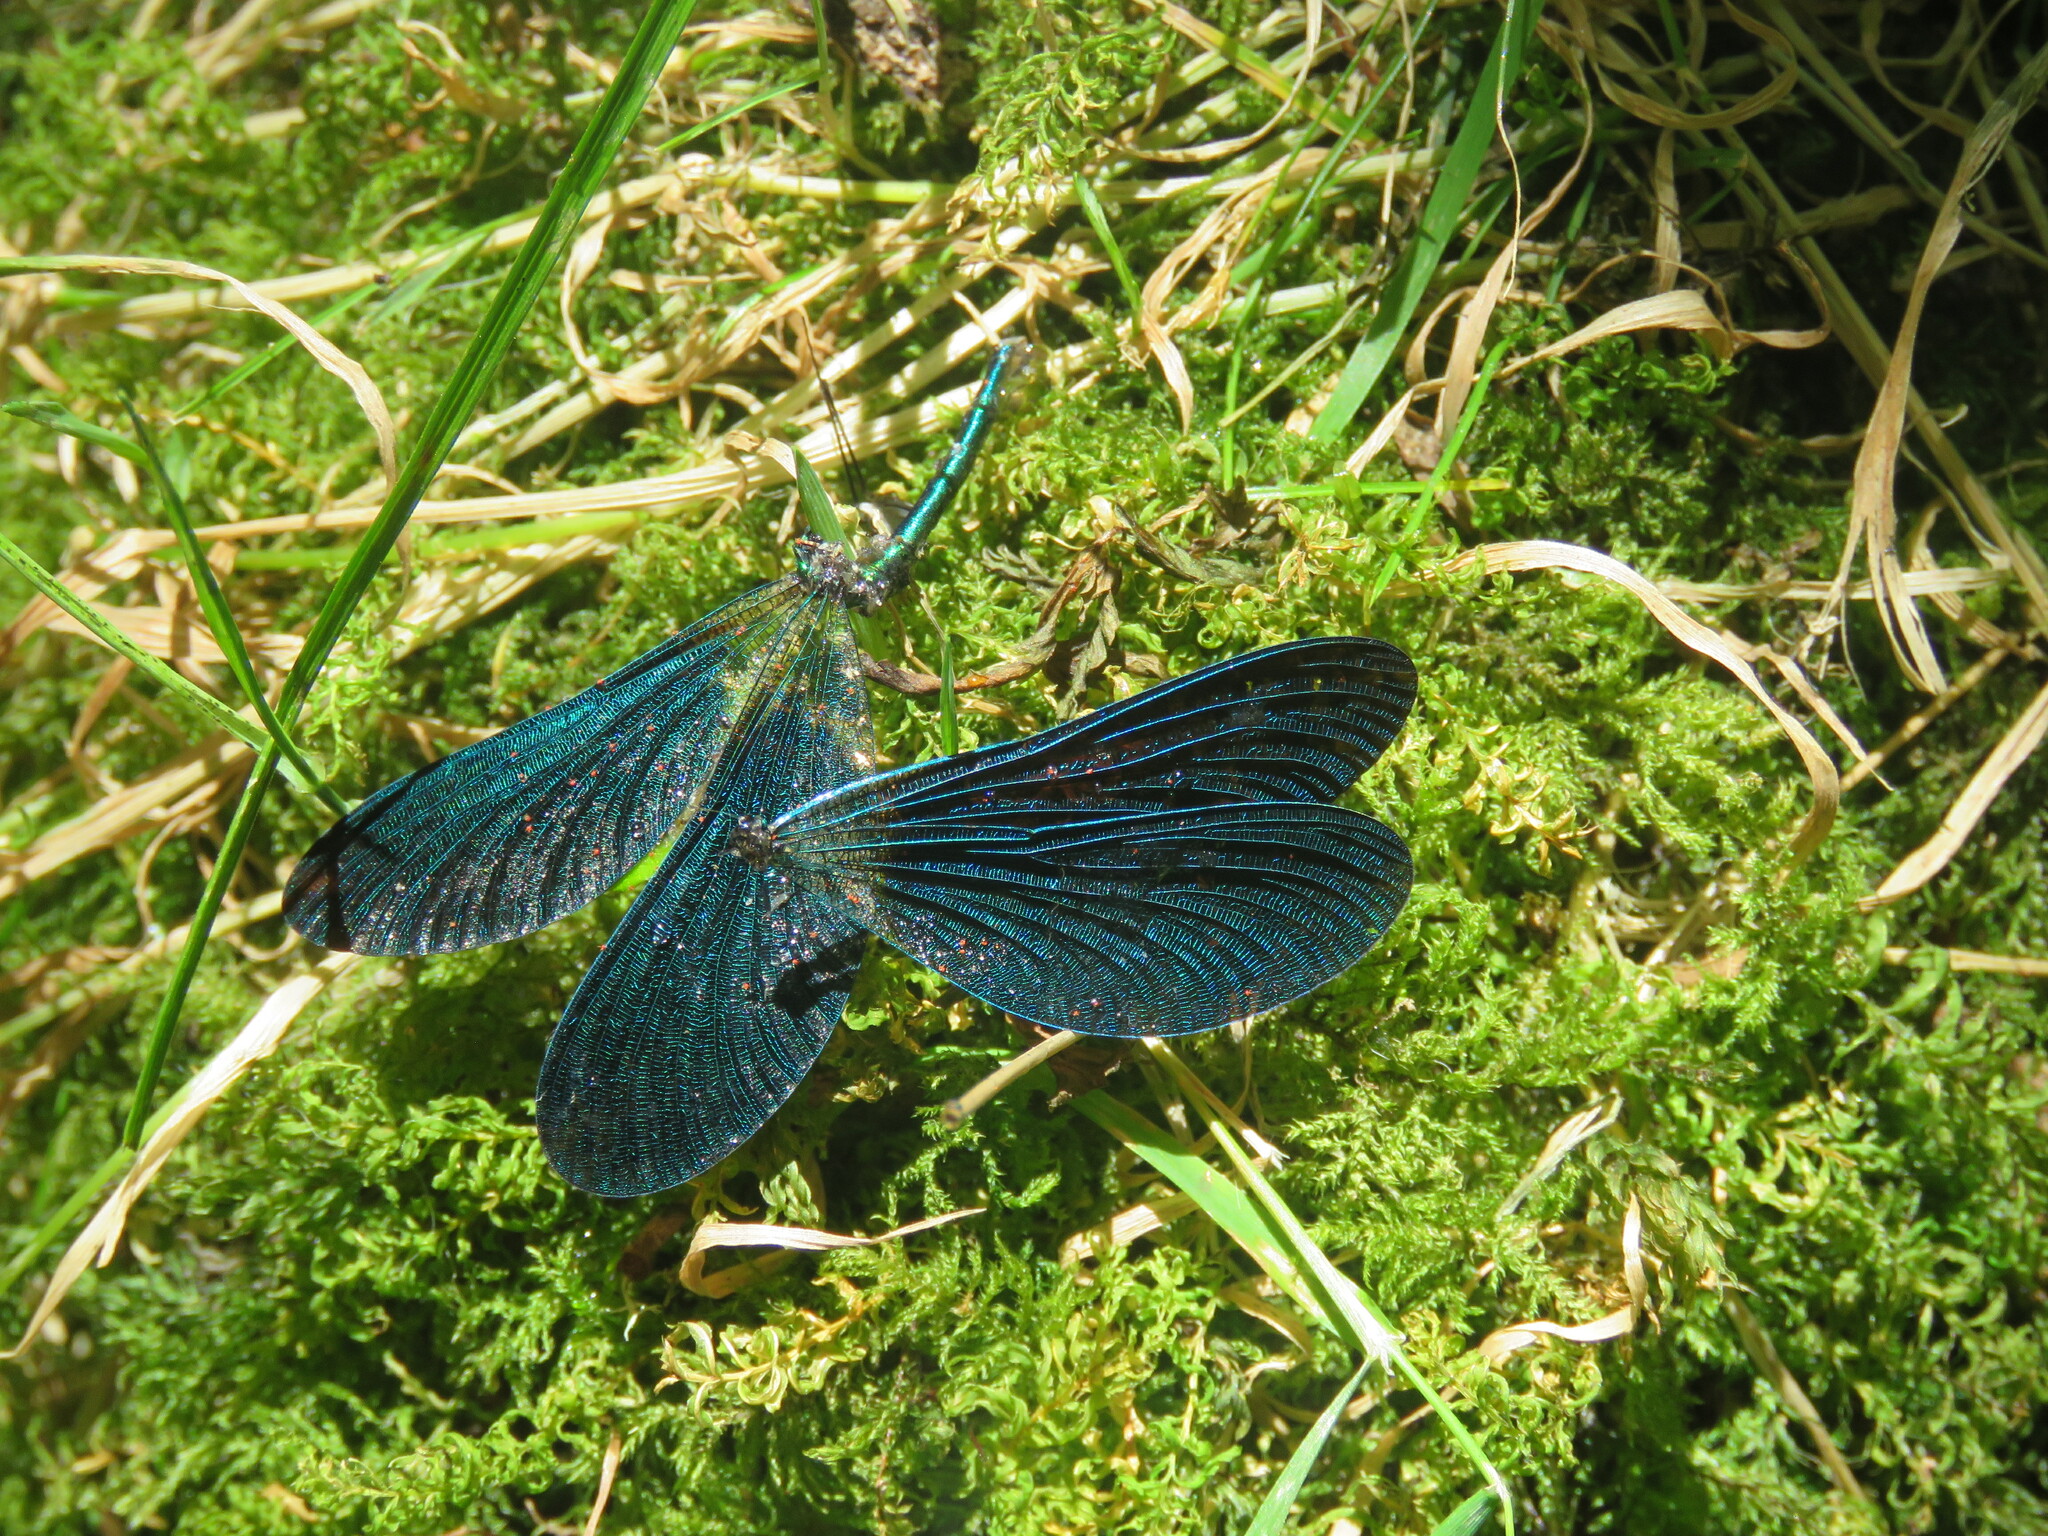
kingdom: Animalia
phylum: Arthropoda
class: Insecta
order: Odonata
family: Calopterygidae
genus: Calopteryx
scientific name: Calopteryx virgo
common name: Beautiful demoiselle
